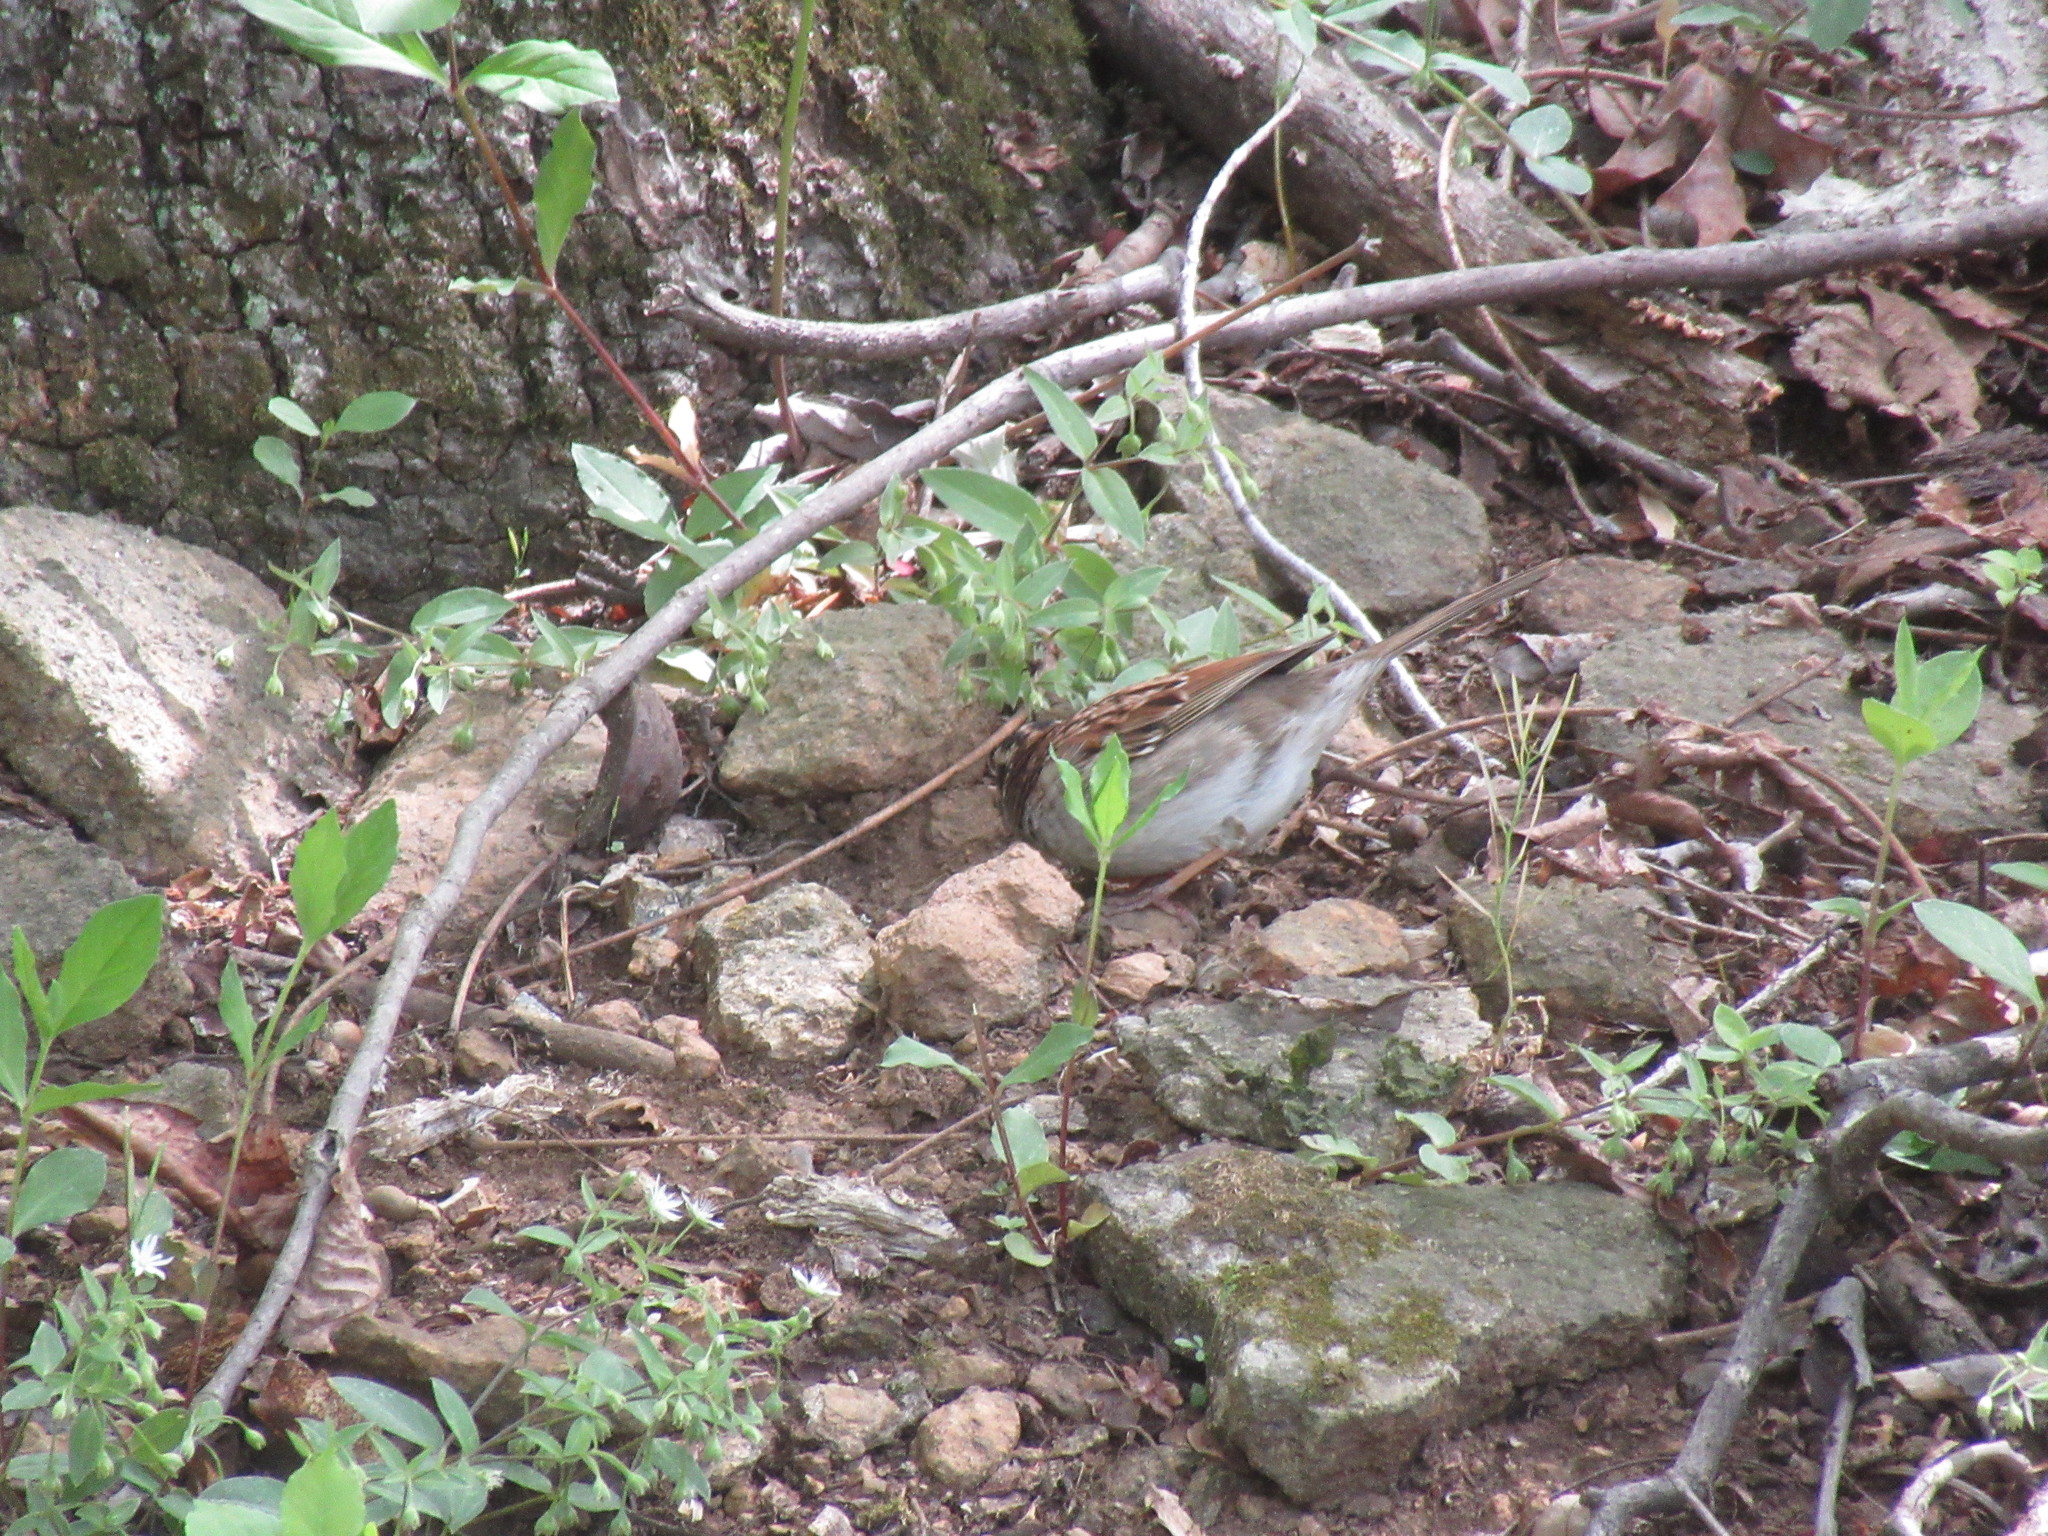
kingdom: Animalia
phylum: Chordata
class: Aves
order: Passeriformes
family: Passerellidae
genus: Zonotrichia
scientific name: Zonotrichia albicollis
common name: White-throated sparrow
